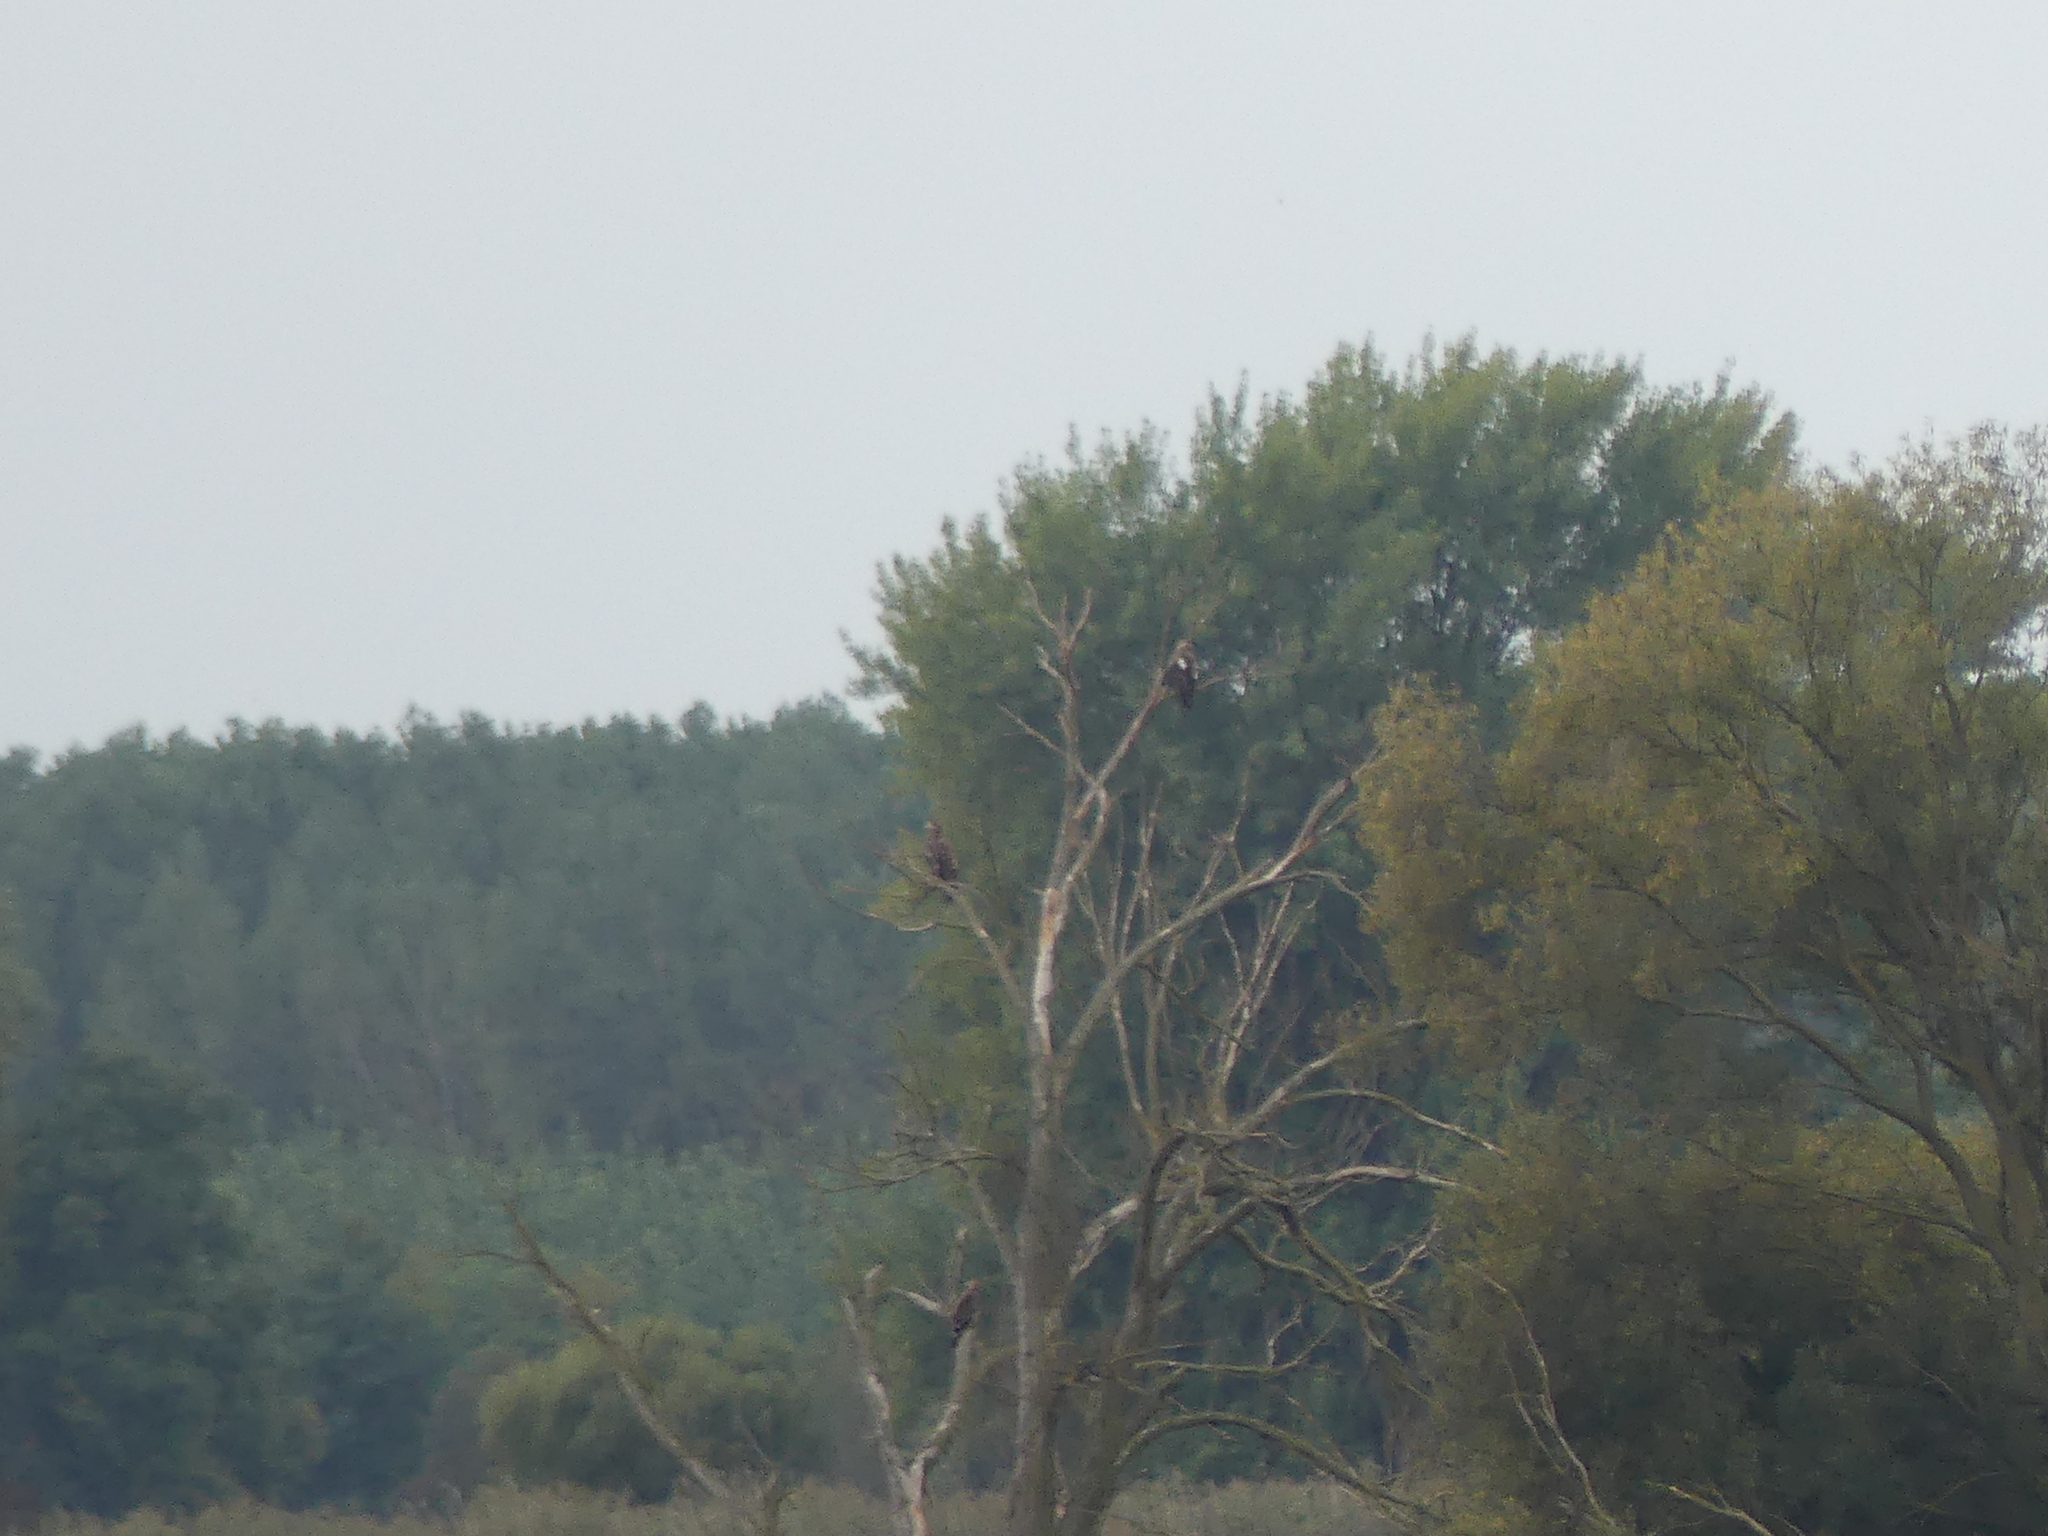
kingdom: Animalia
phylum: Chordata
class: Aves
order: Accipitriformes
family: Accipitridae
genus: Aquila
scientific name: Aquila heliaca
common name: Eastern imperial eagle
